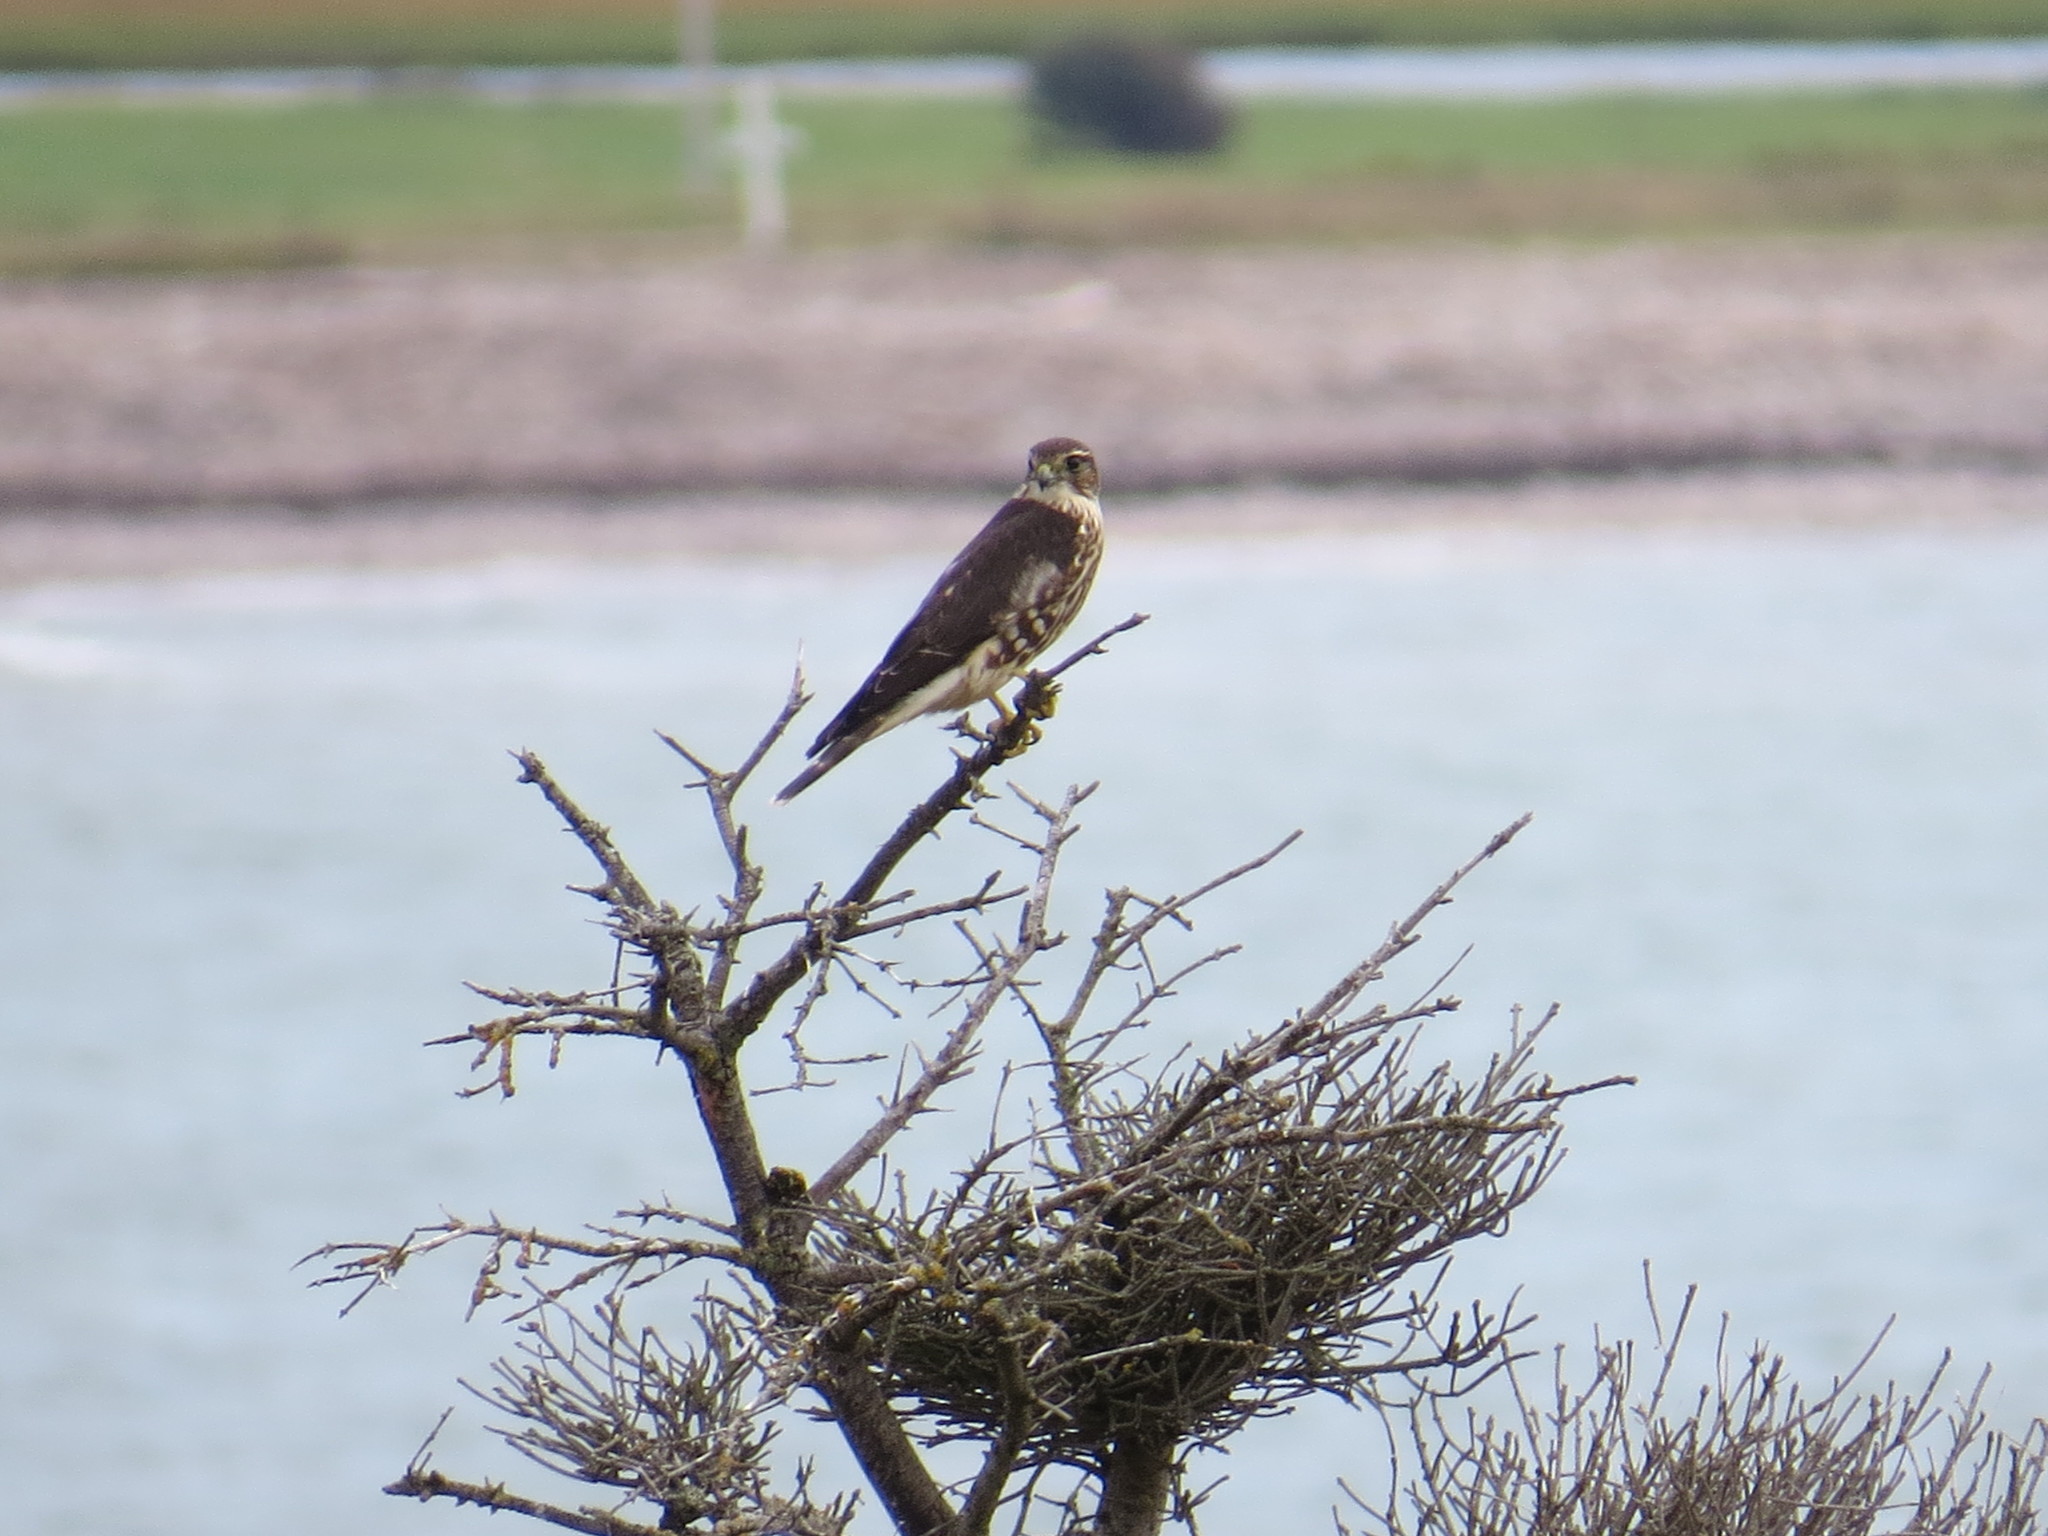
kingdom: Animalia
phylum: Chordata
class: Aves
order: Falconiformes
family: Falconidae
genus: Falco
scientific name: Falco columbarius
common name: Merlin
